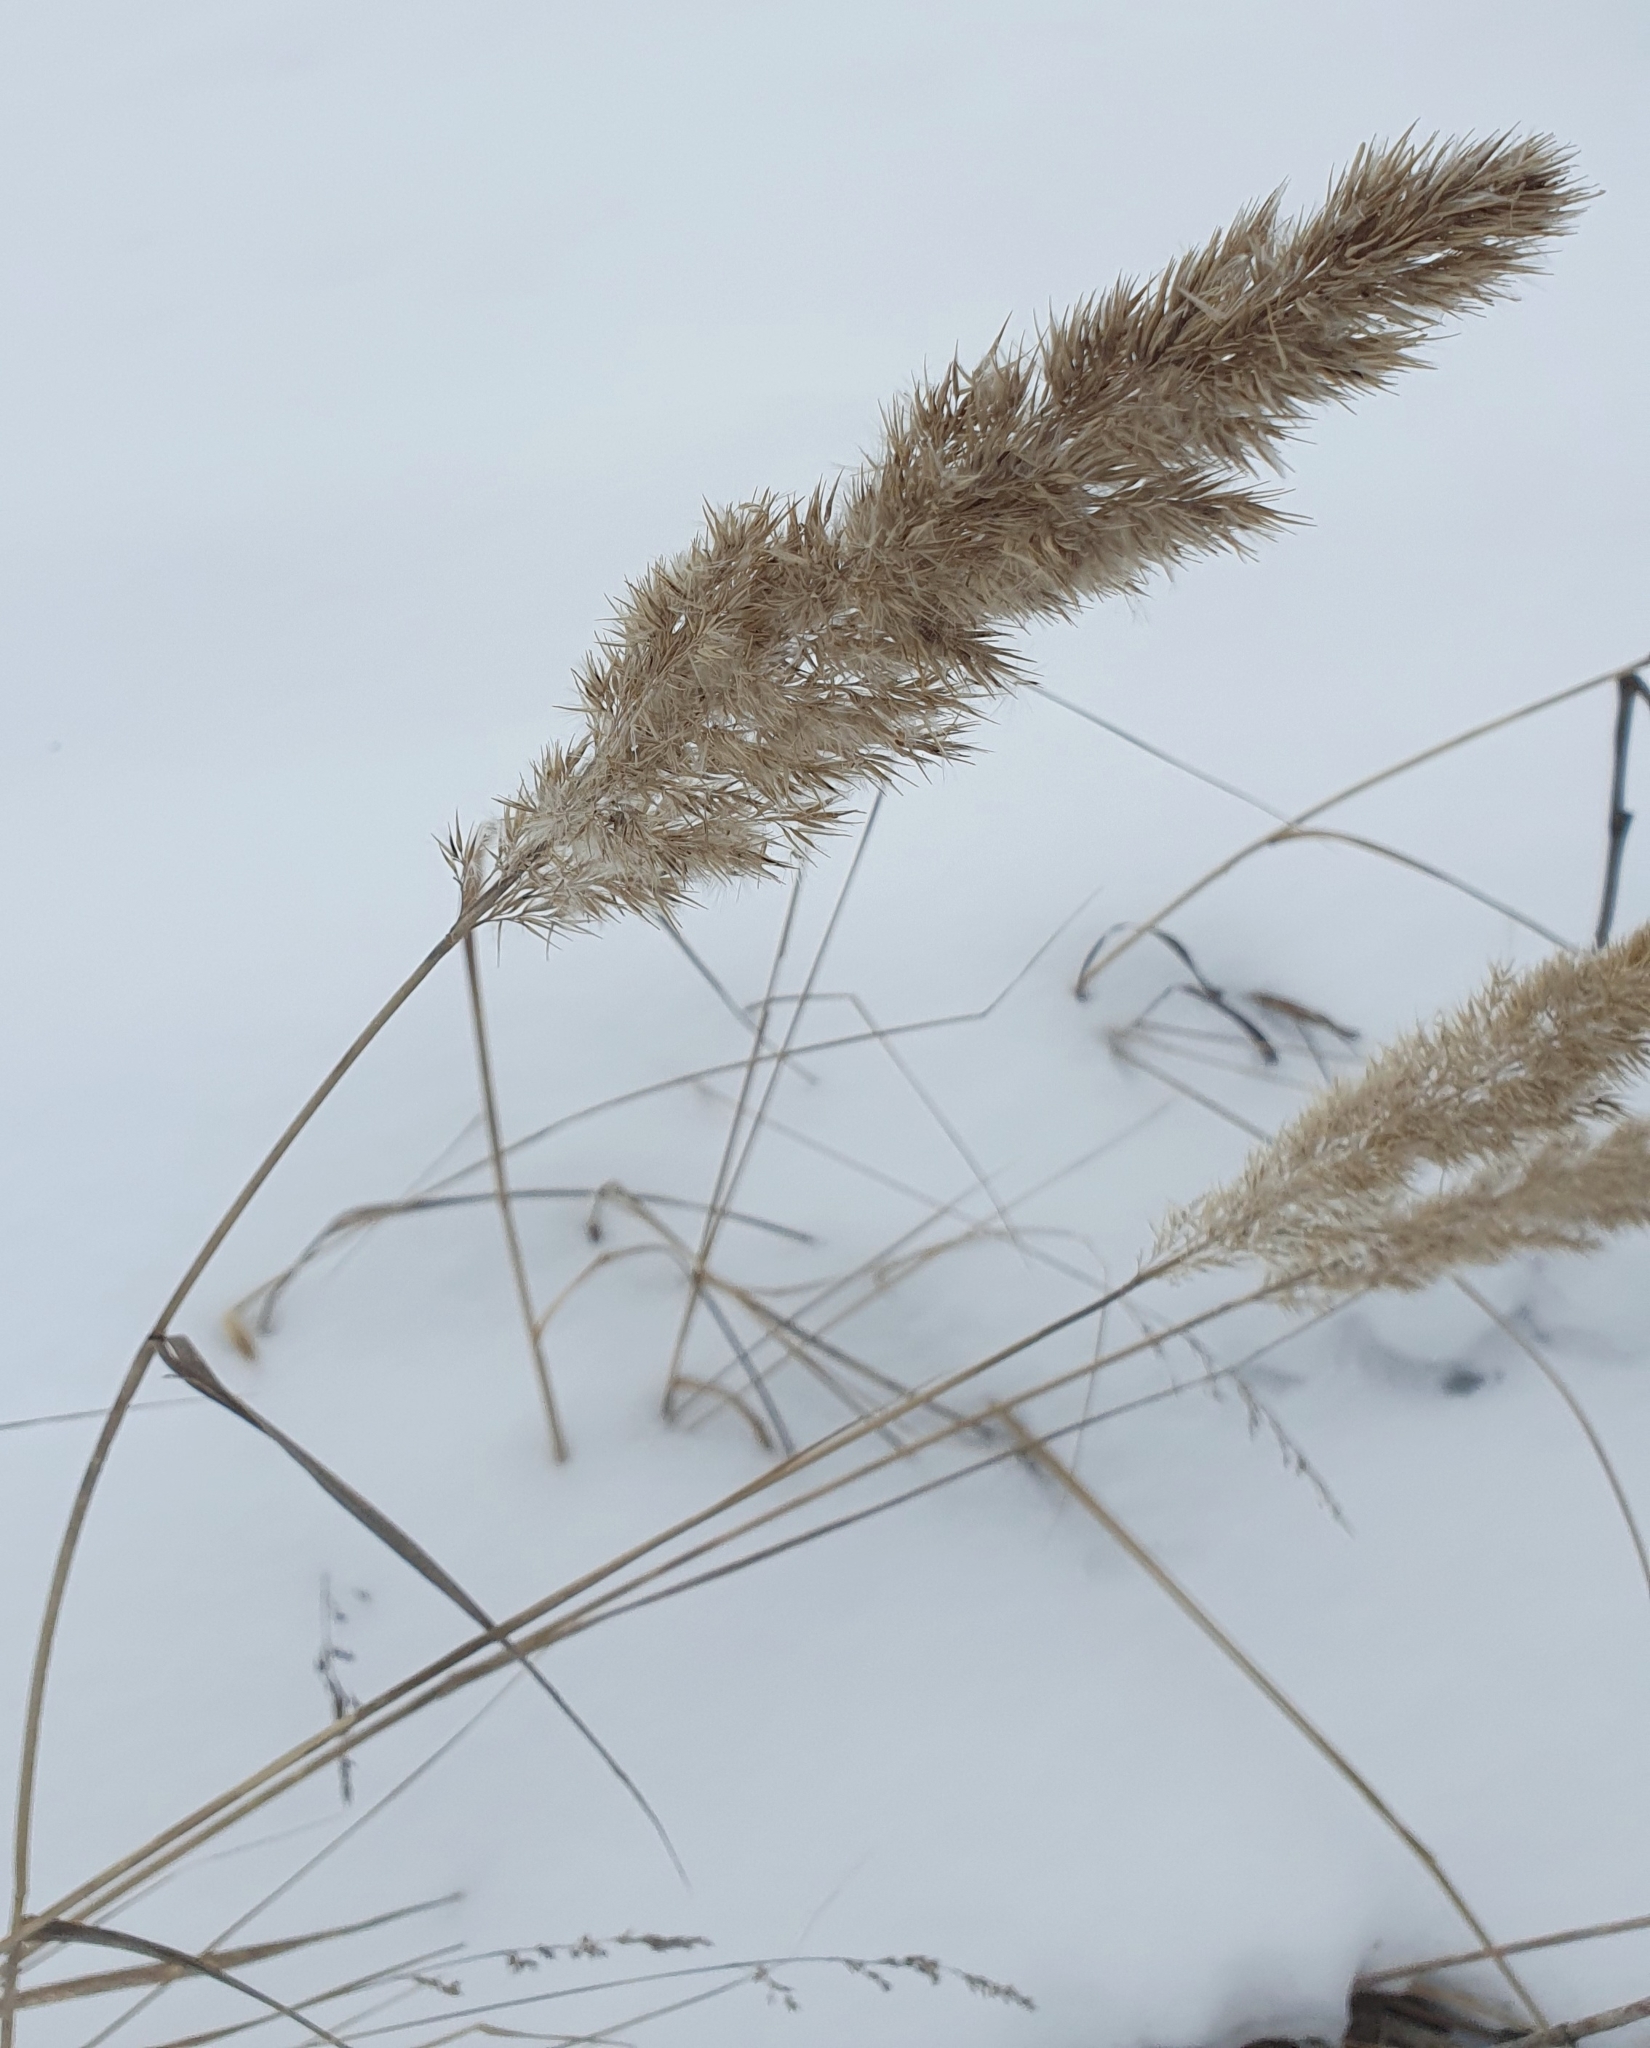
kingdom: Plantae
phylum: Tracheophyta
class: Liliopsida
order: Poales
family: Poaceae
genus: Calamagrostis
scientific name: Calamagrostis epigejos
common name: Wood small-reed
